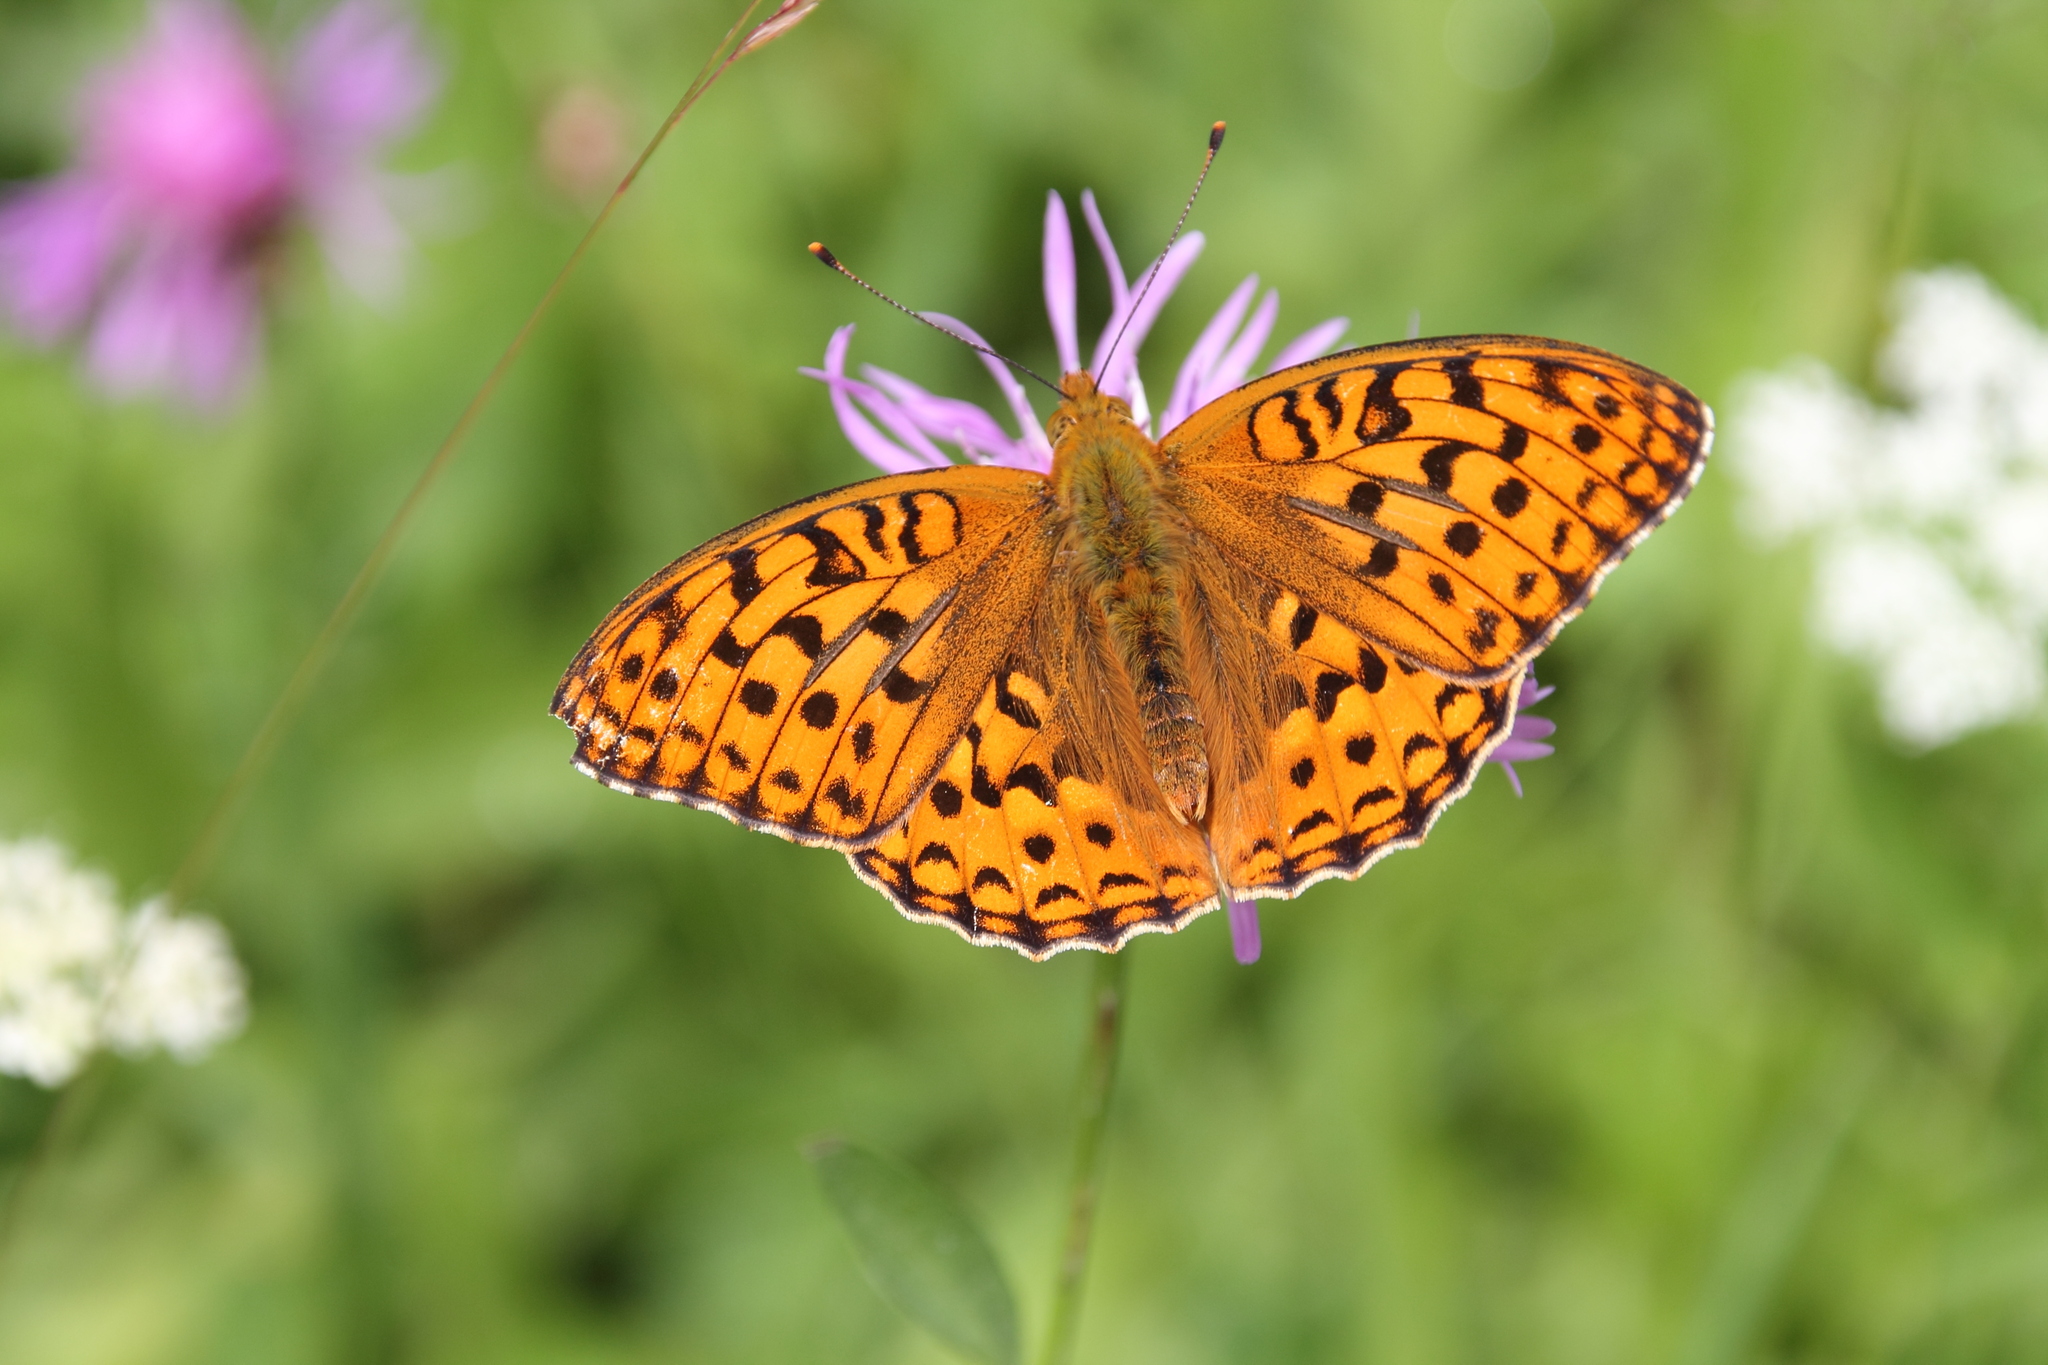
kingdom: Animalia
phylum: Arthropoda
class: Insecta
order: Lepidoptera
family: Nymphalidae
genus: Fabriciana
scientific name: Fabriciana adippe
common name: High brown fritillary
